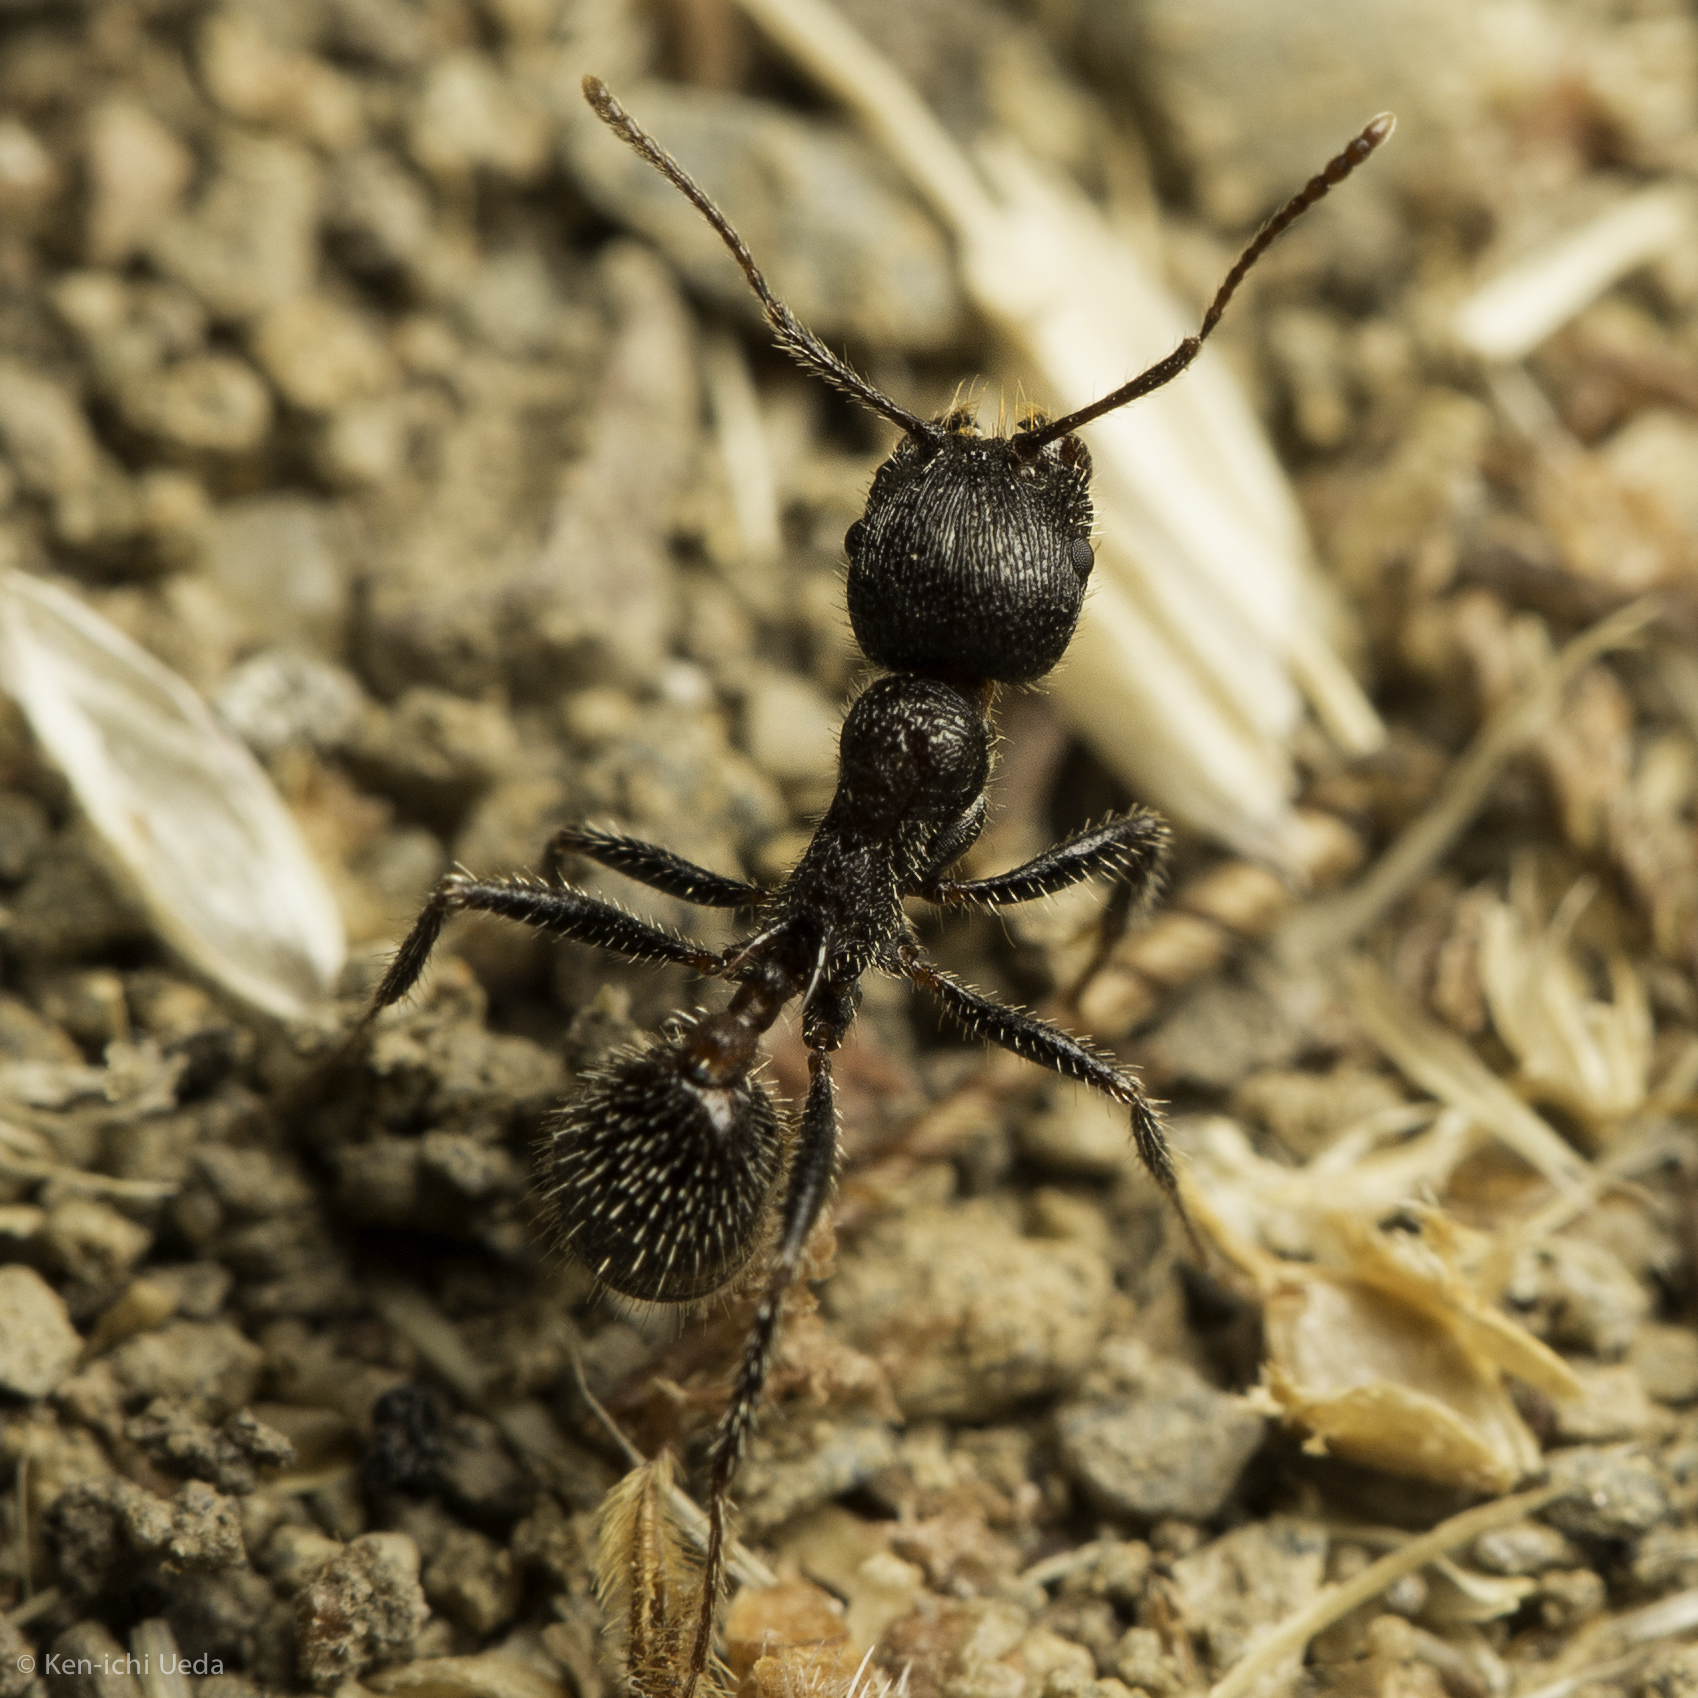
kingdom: Animalia
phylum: Arthropoda
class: Insecta
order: Hymenoptera
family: Formicidae
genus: Veromessor
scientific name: Veromessor andrei
